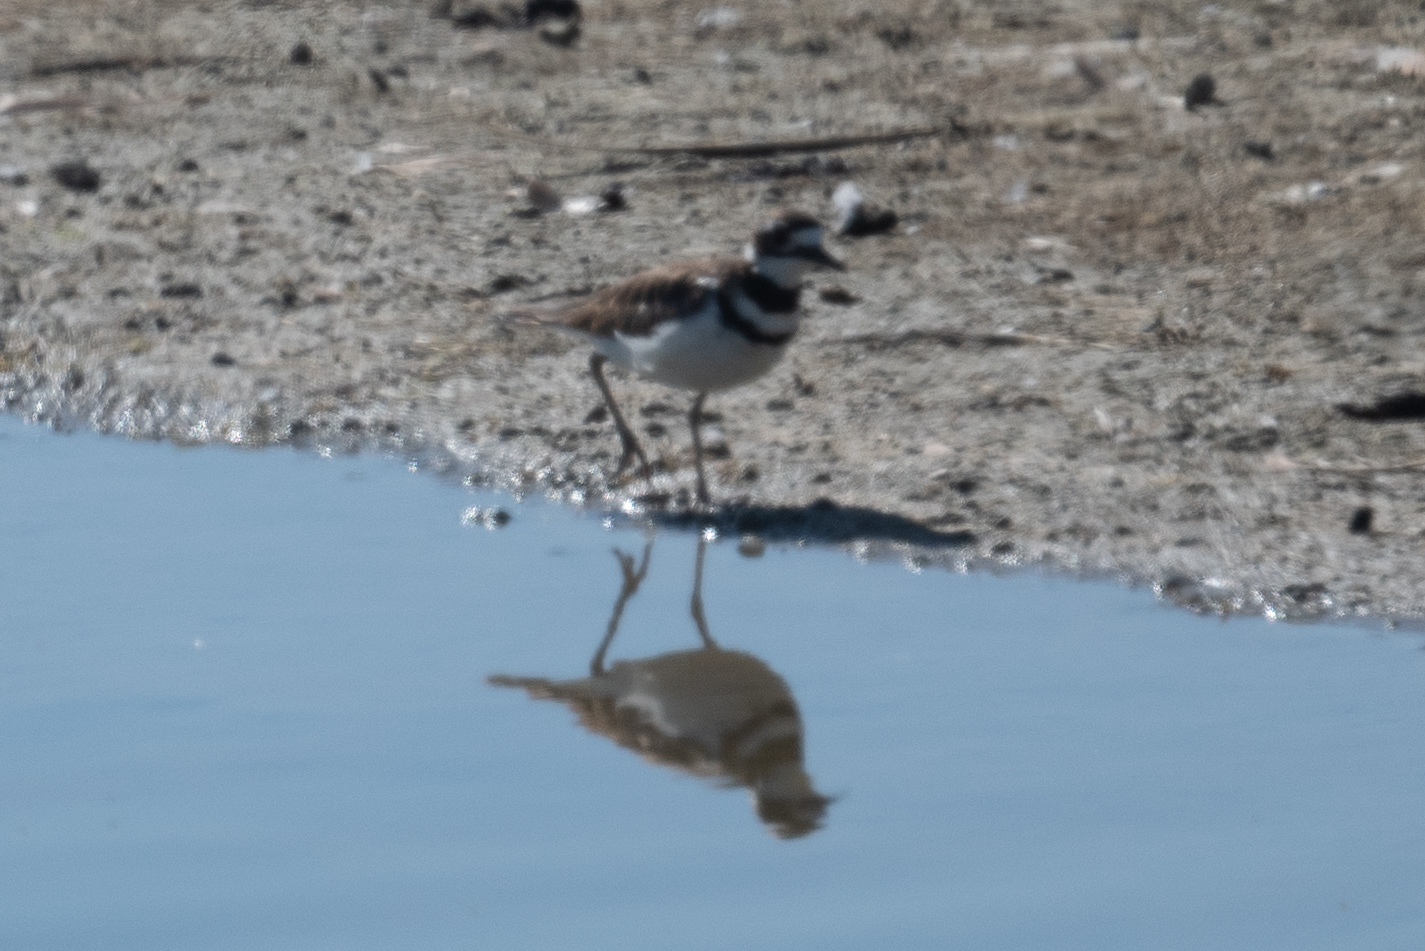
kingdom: Animalia
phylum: Chordata
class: Aves
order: Charadriiformes
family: Charadriidae
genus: Charadrius
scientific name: Charadrius vociferus
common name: Killdeer
